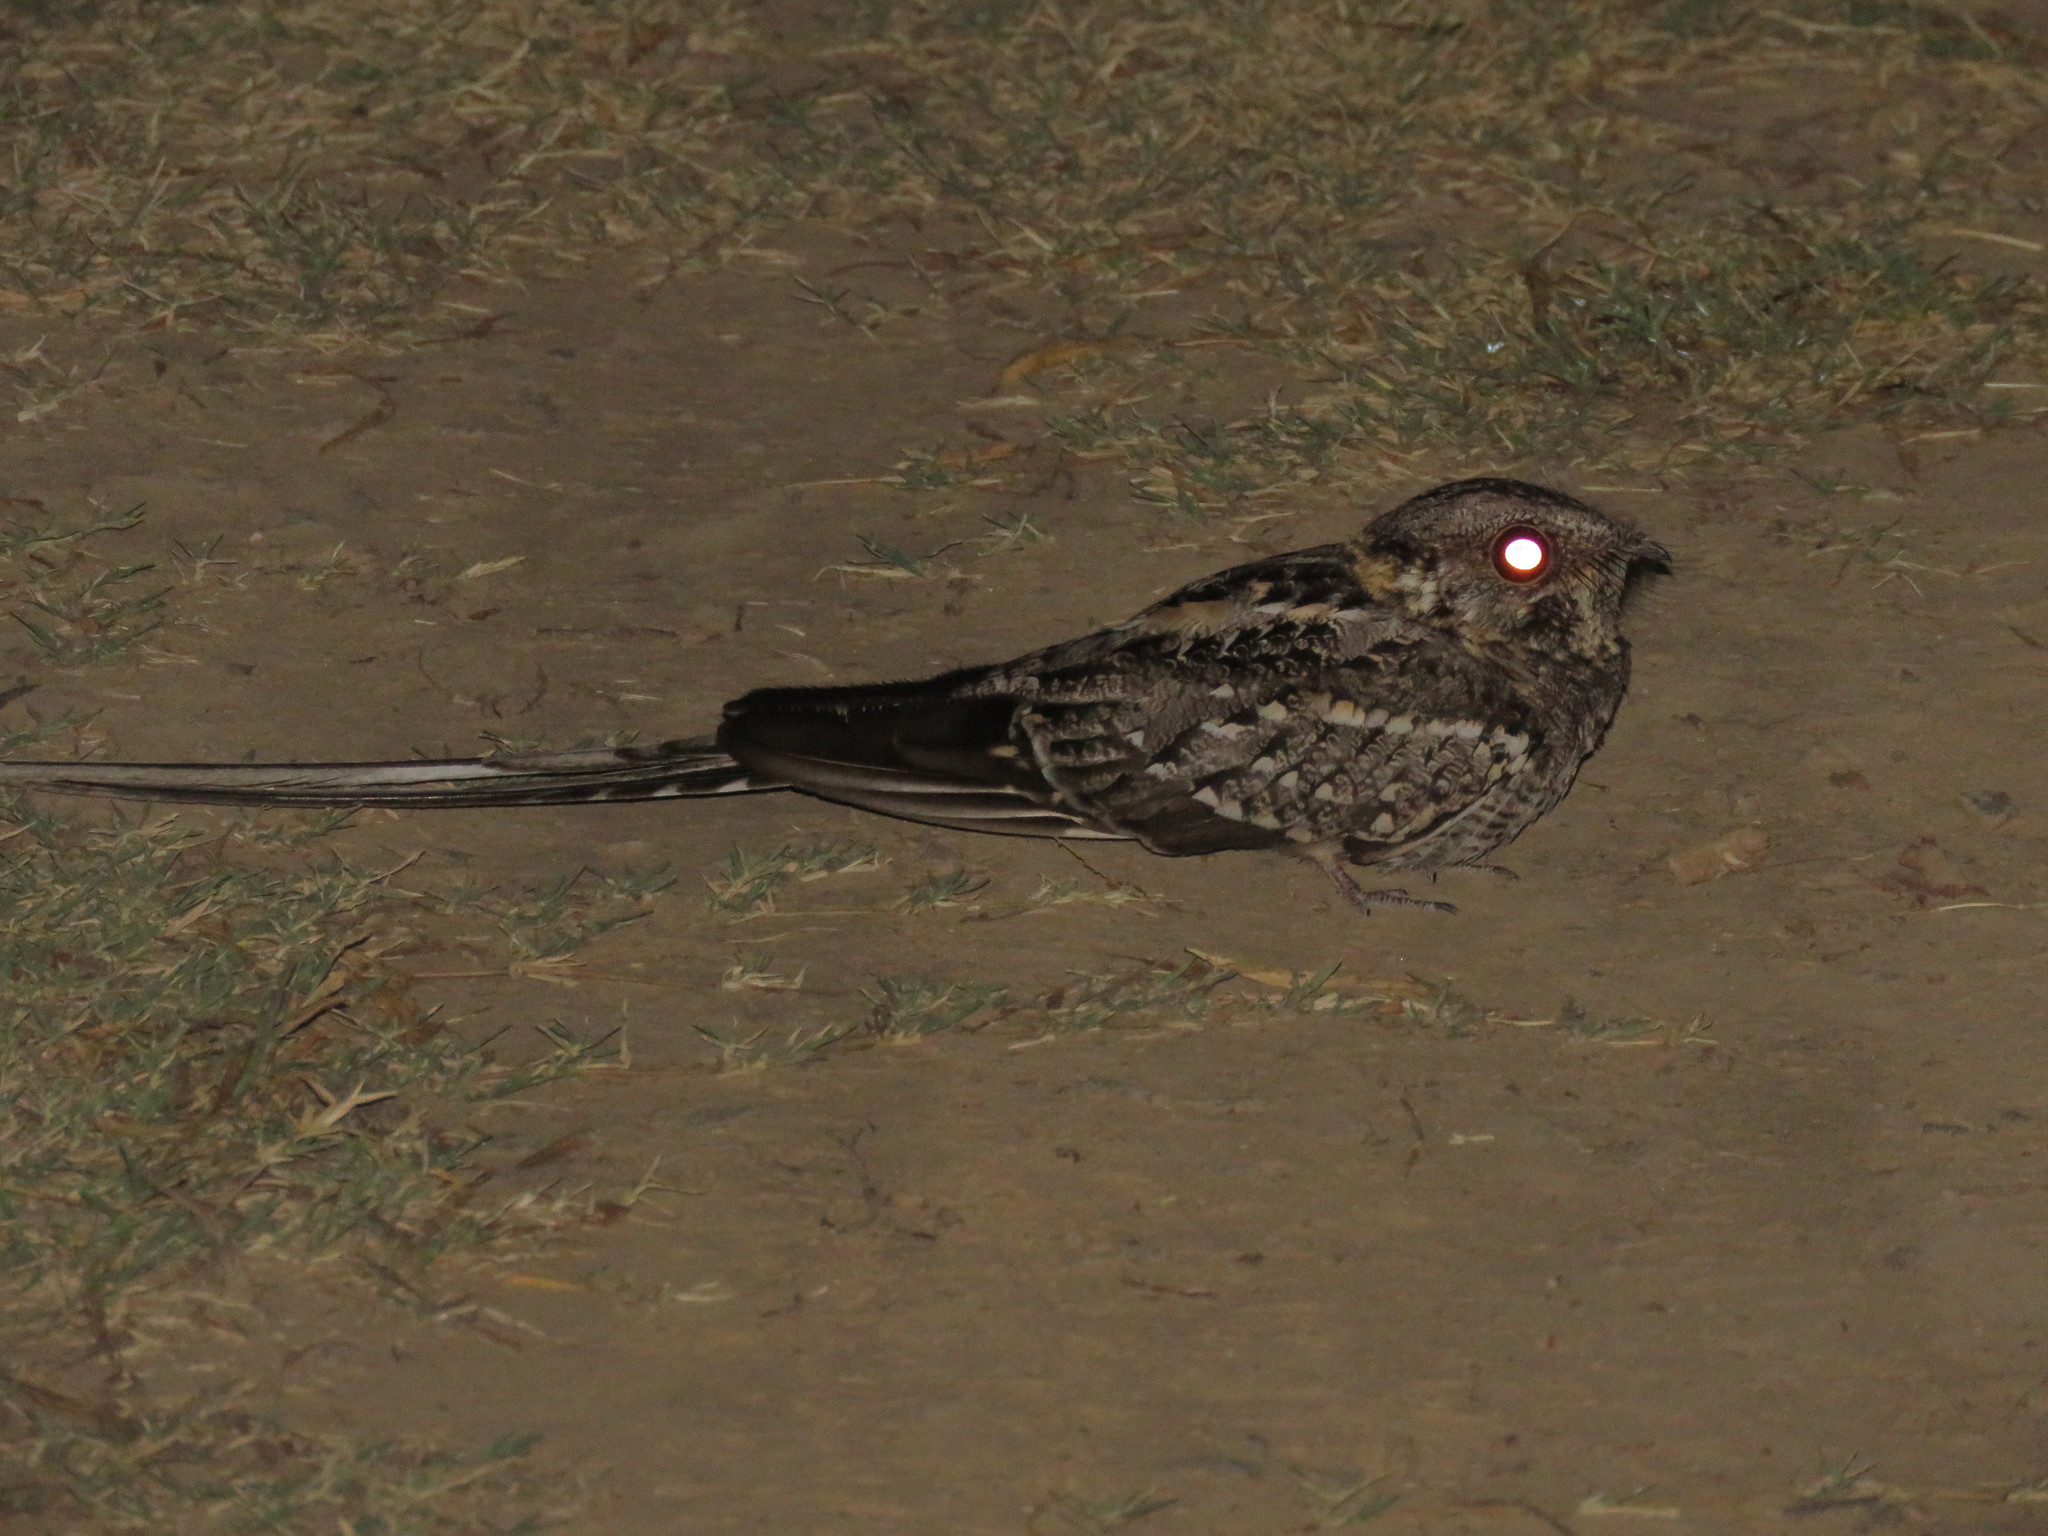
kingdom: Animalia
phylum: Chordata
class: Aves
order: Caprimulgiformes
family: Caprimulgidae
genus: Hydropsalis
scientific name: Hydropsalis torquata
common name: Scissor-tailed nightjar
